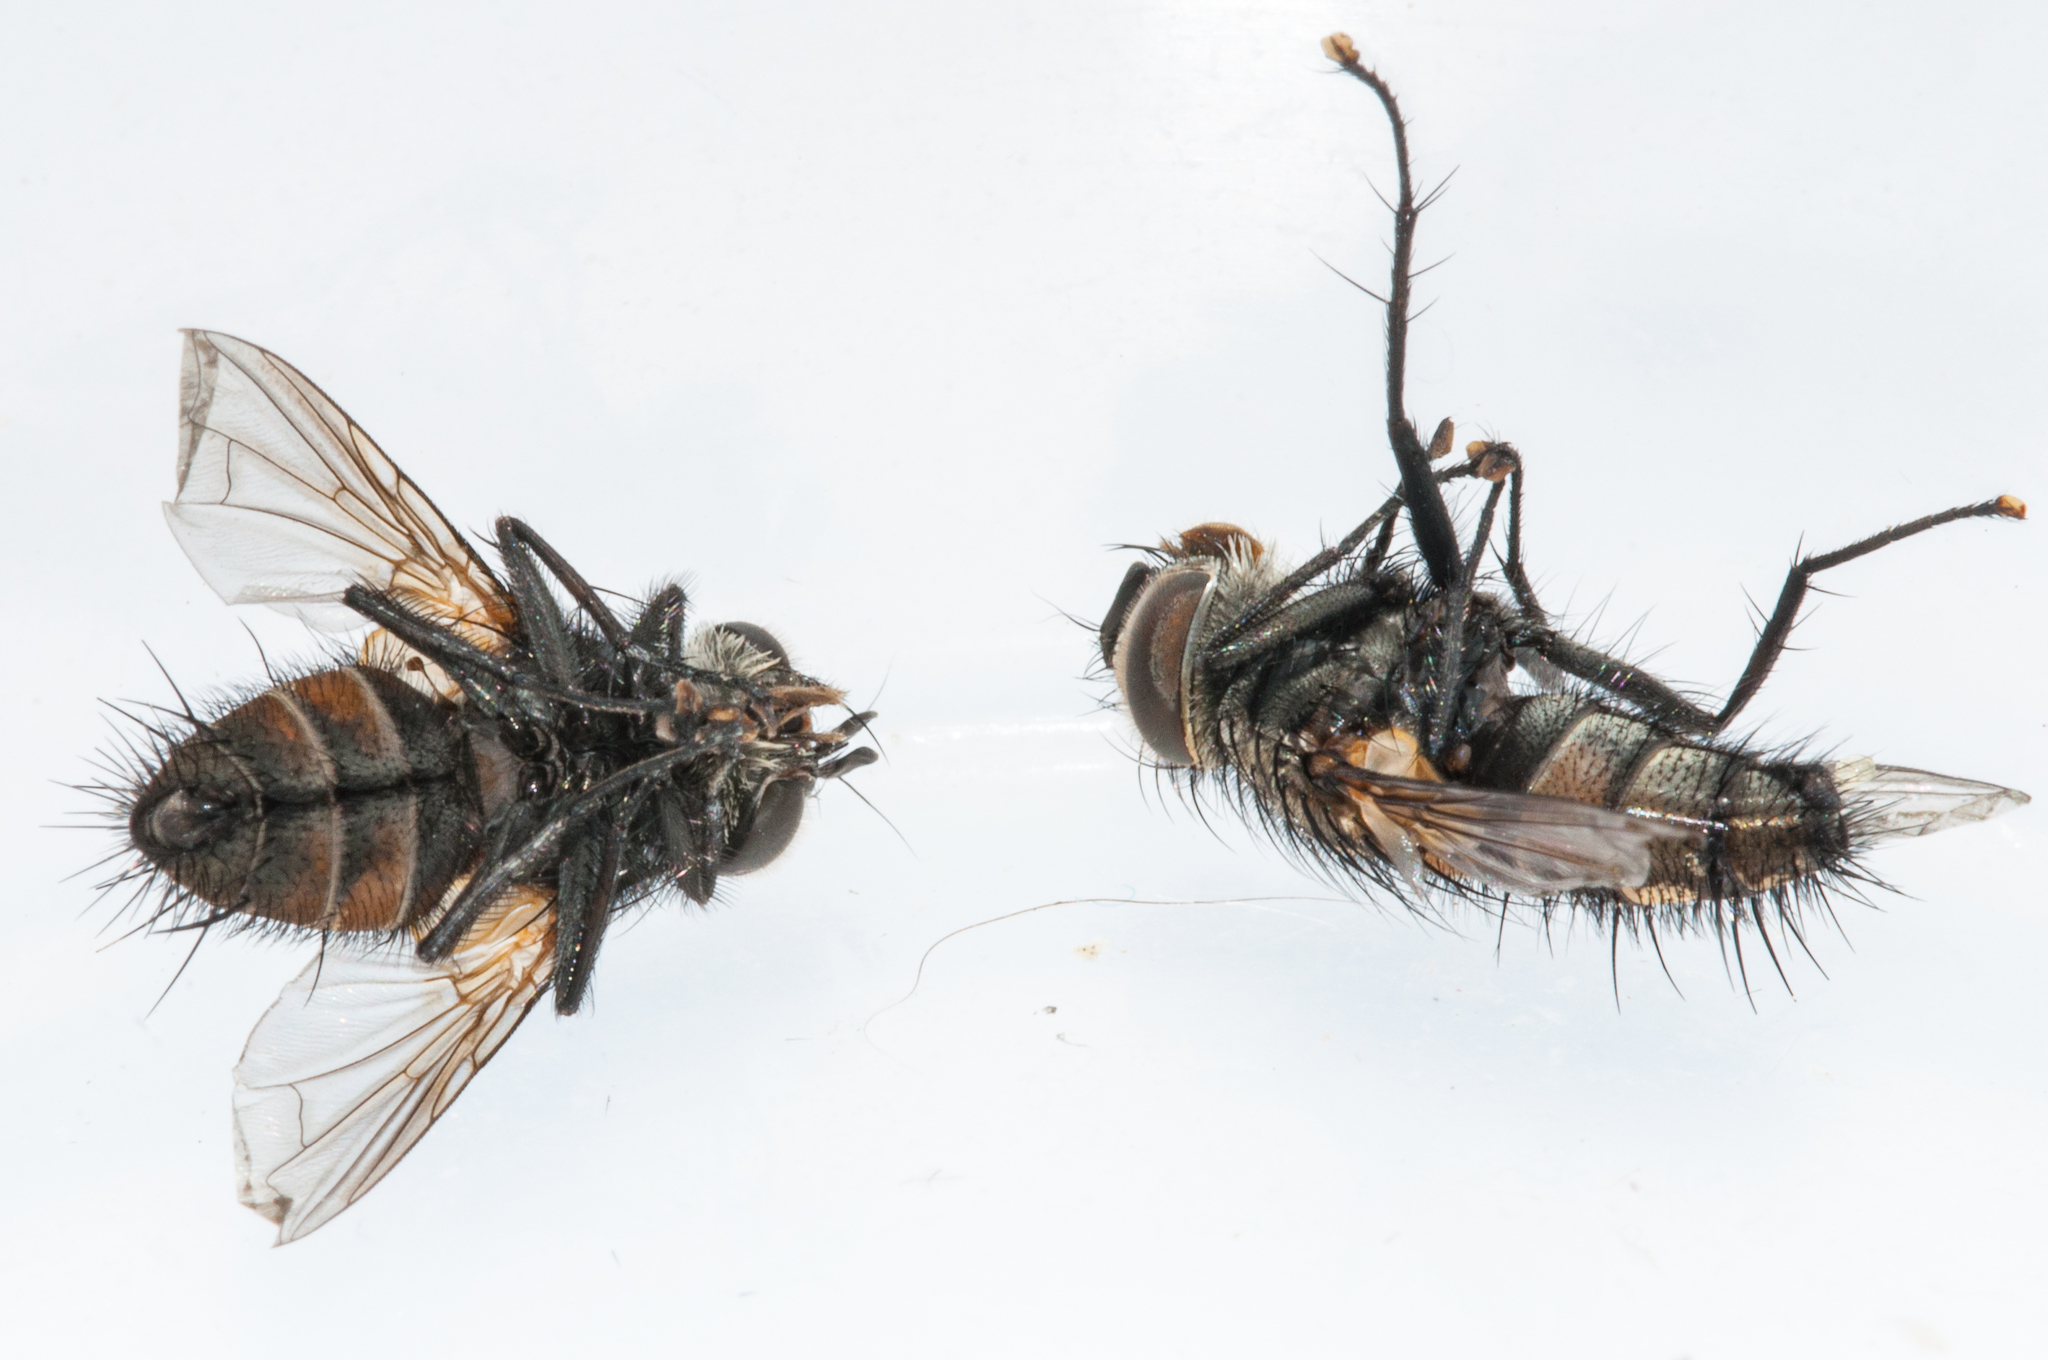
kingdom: Animalia
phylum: Arthropoda
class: Insecta
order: Lepidoptera
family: Erebidae
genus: Paralacydes
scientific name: Paralacydes vocula
